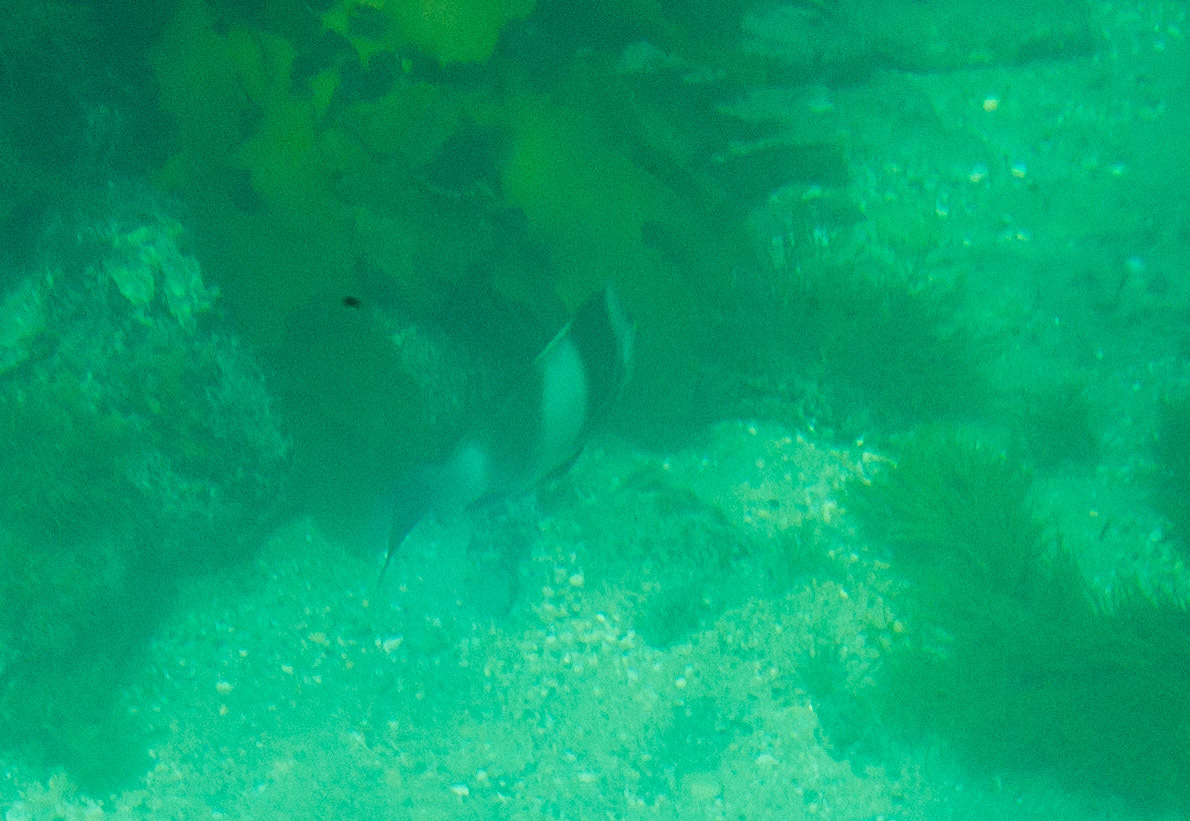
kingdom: Animalia
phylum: Chordata
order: Perciformes
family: Latridae
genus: Pseudogoniistius
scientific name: Pseudogoniistius nigripes
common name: Black-striped morwong
